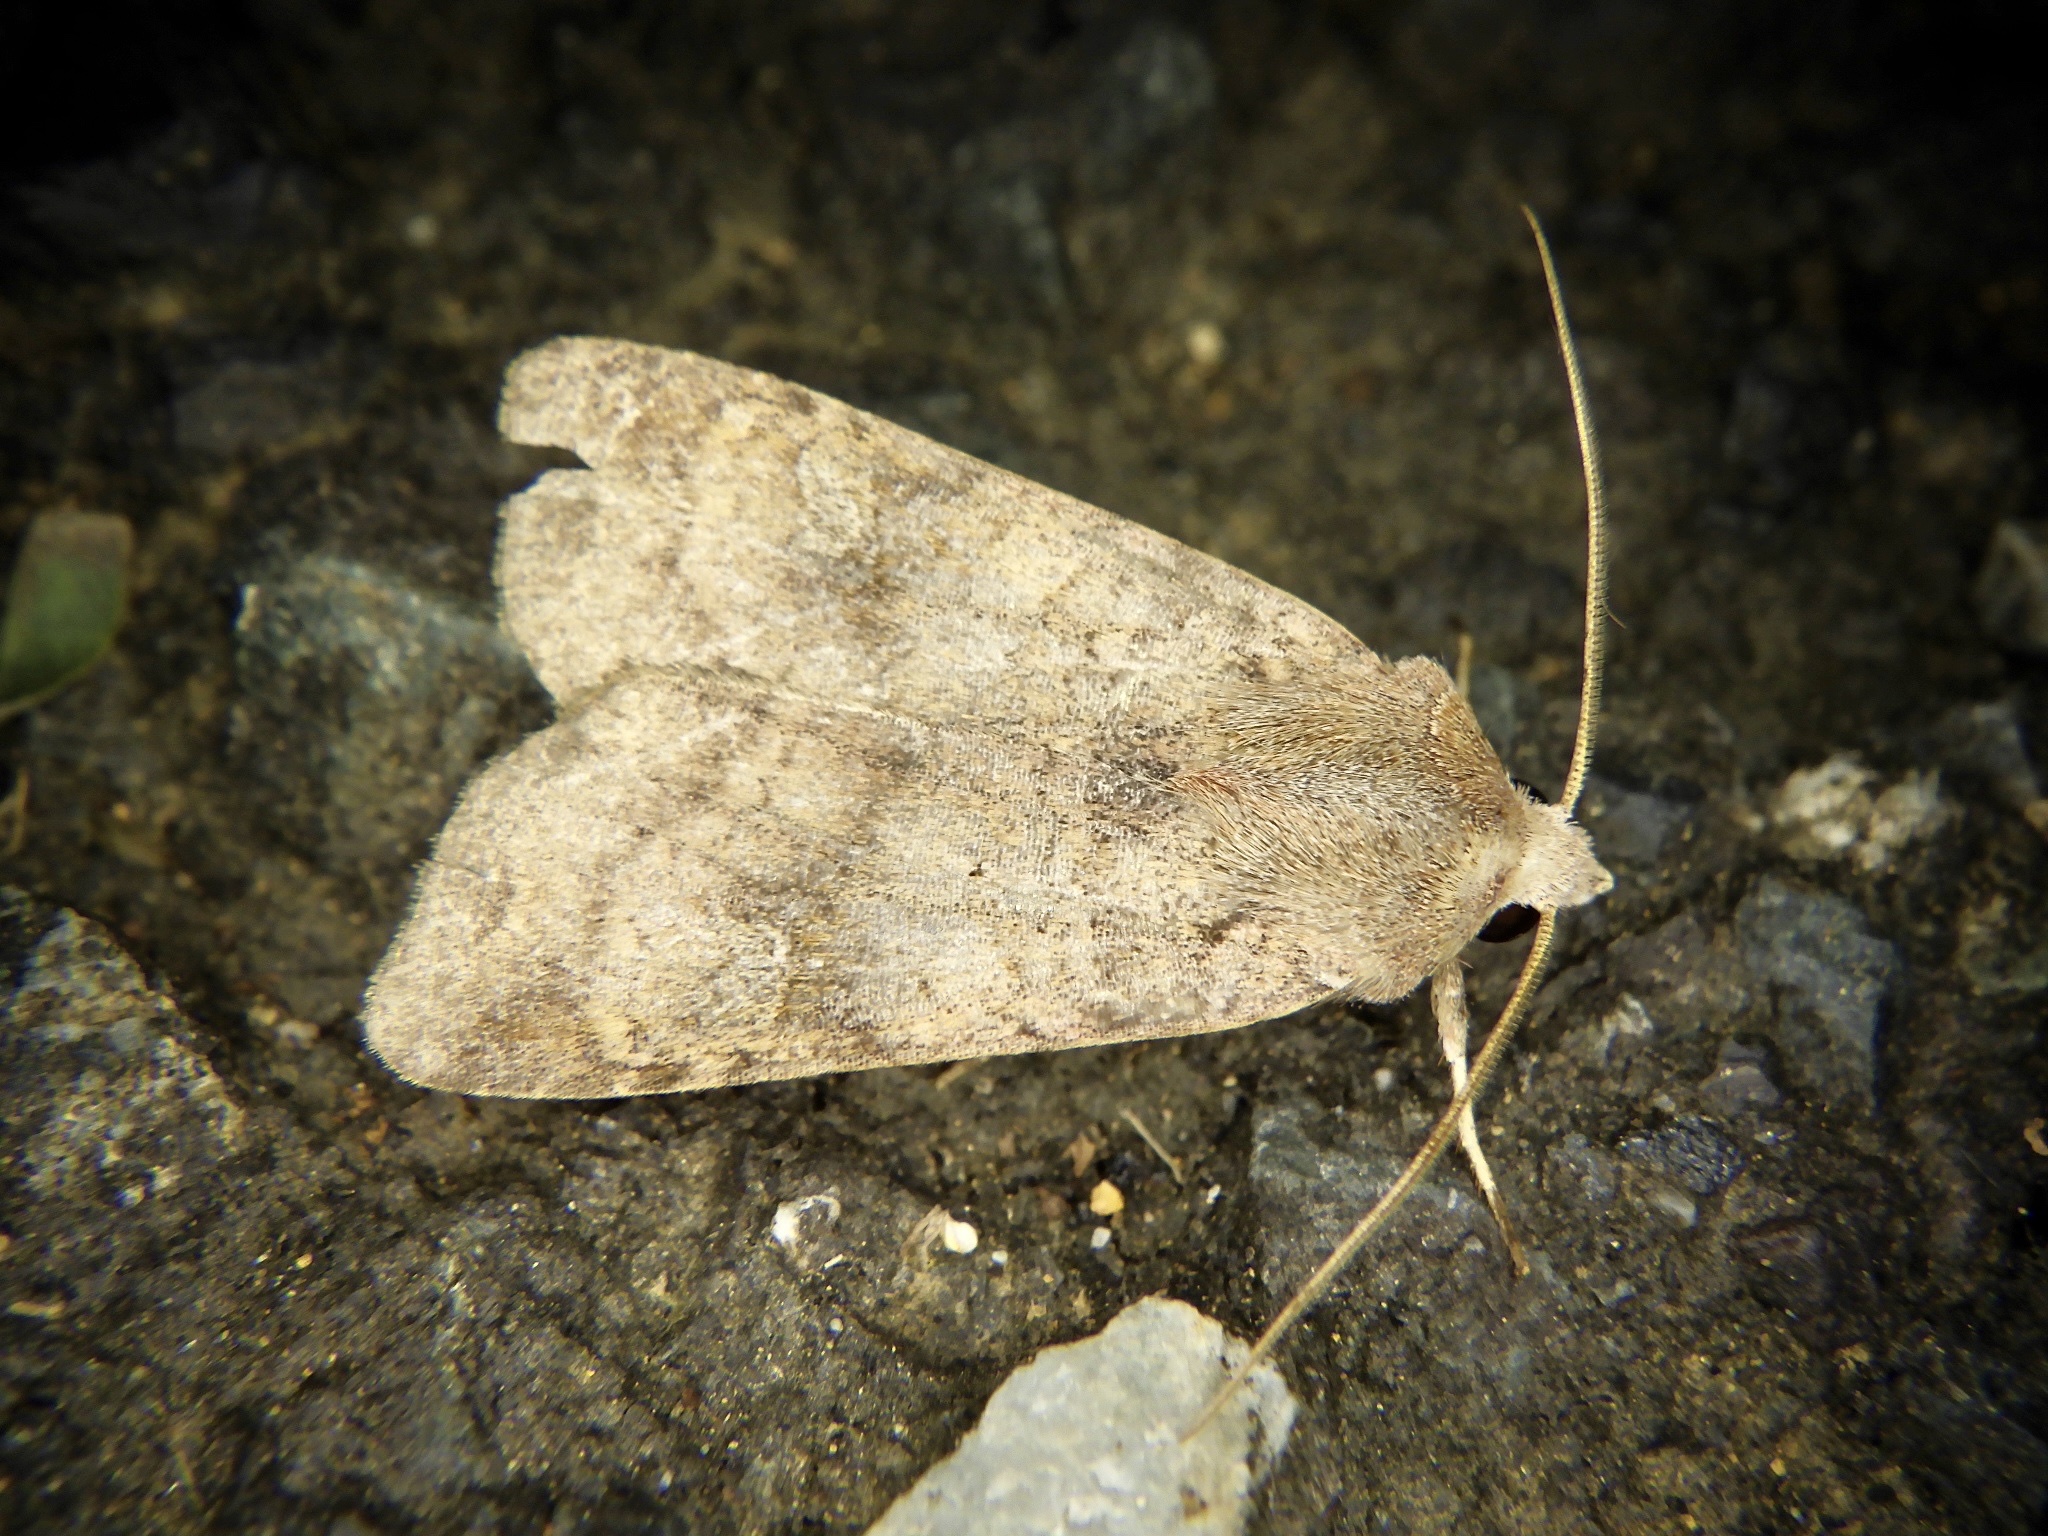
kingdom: Animalia
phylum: Arthropoda
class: Insecta
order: Lepidoptera
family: Noctuidae
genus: Diarsia
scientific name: Diarsia canescens
